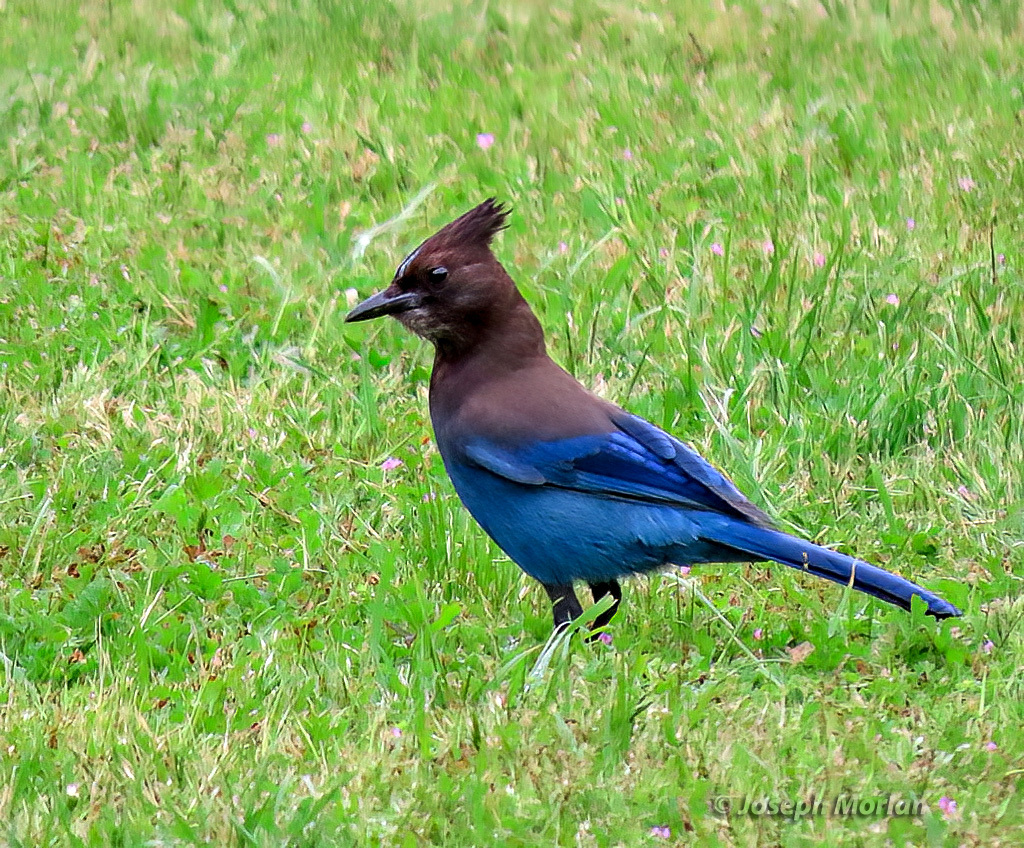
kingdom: Animalia
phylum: Chordata
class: Aves
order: Passeriformes
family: Corvidae
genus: Cyanocitta
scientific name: Cyanocitta stelleri
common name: Steller's jay
